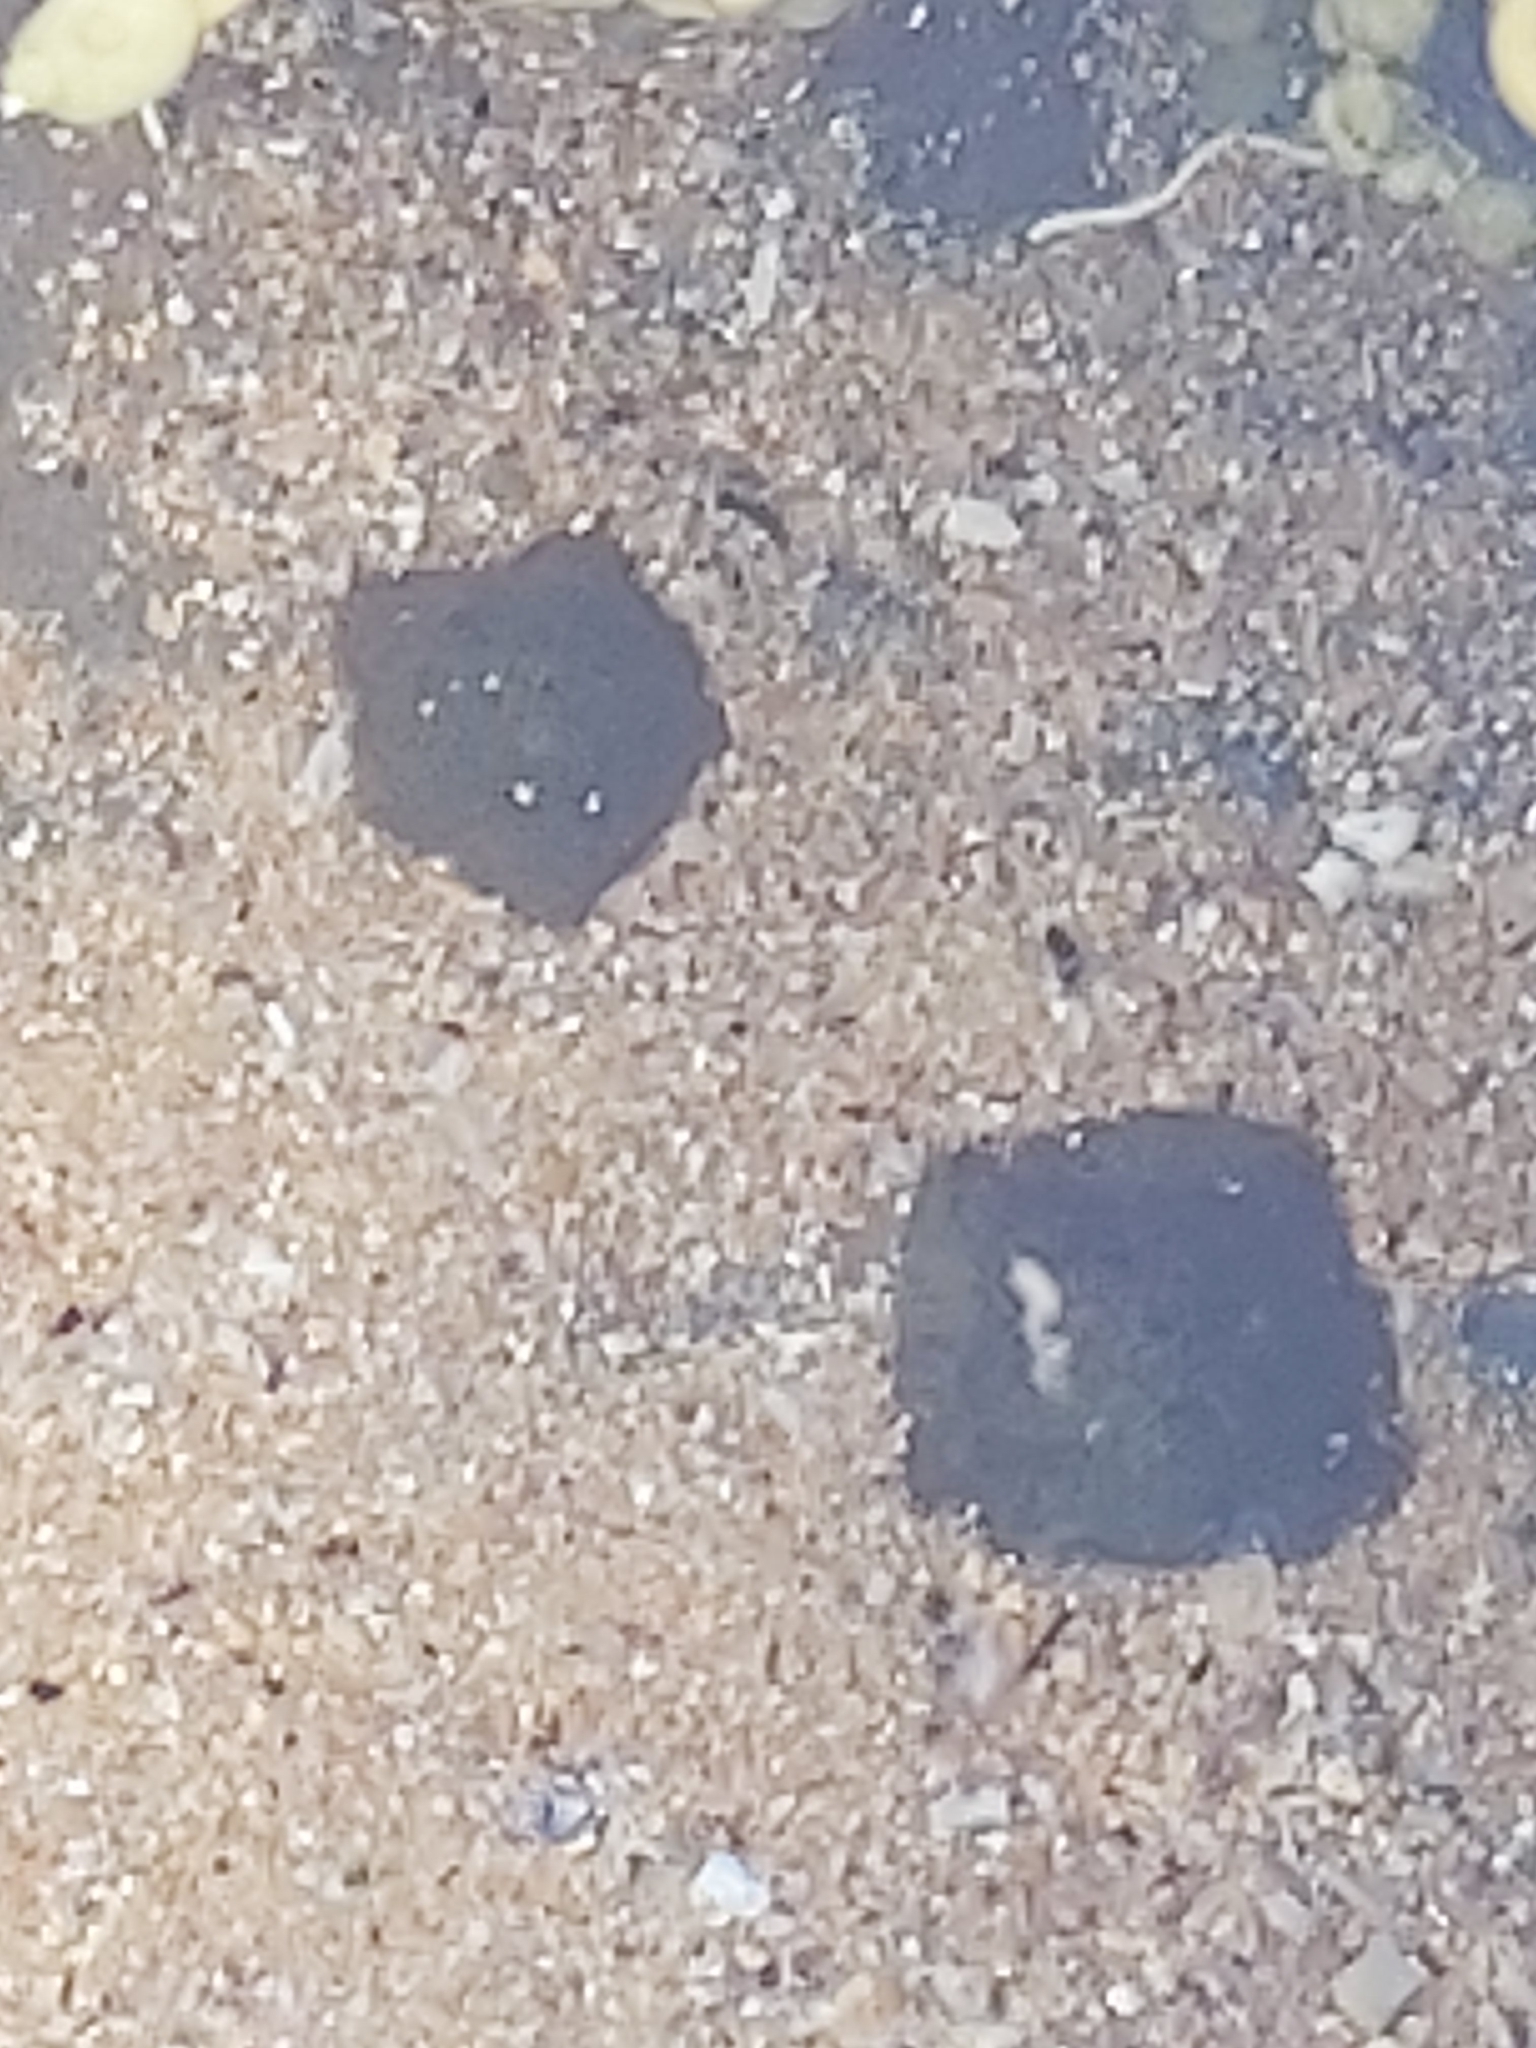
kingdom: Animalia
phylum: Echinodermata
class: Asteroidea
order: Valvatida
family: Asterinidae
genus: Parvulastra
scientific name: Parvulastra exigua
